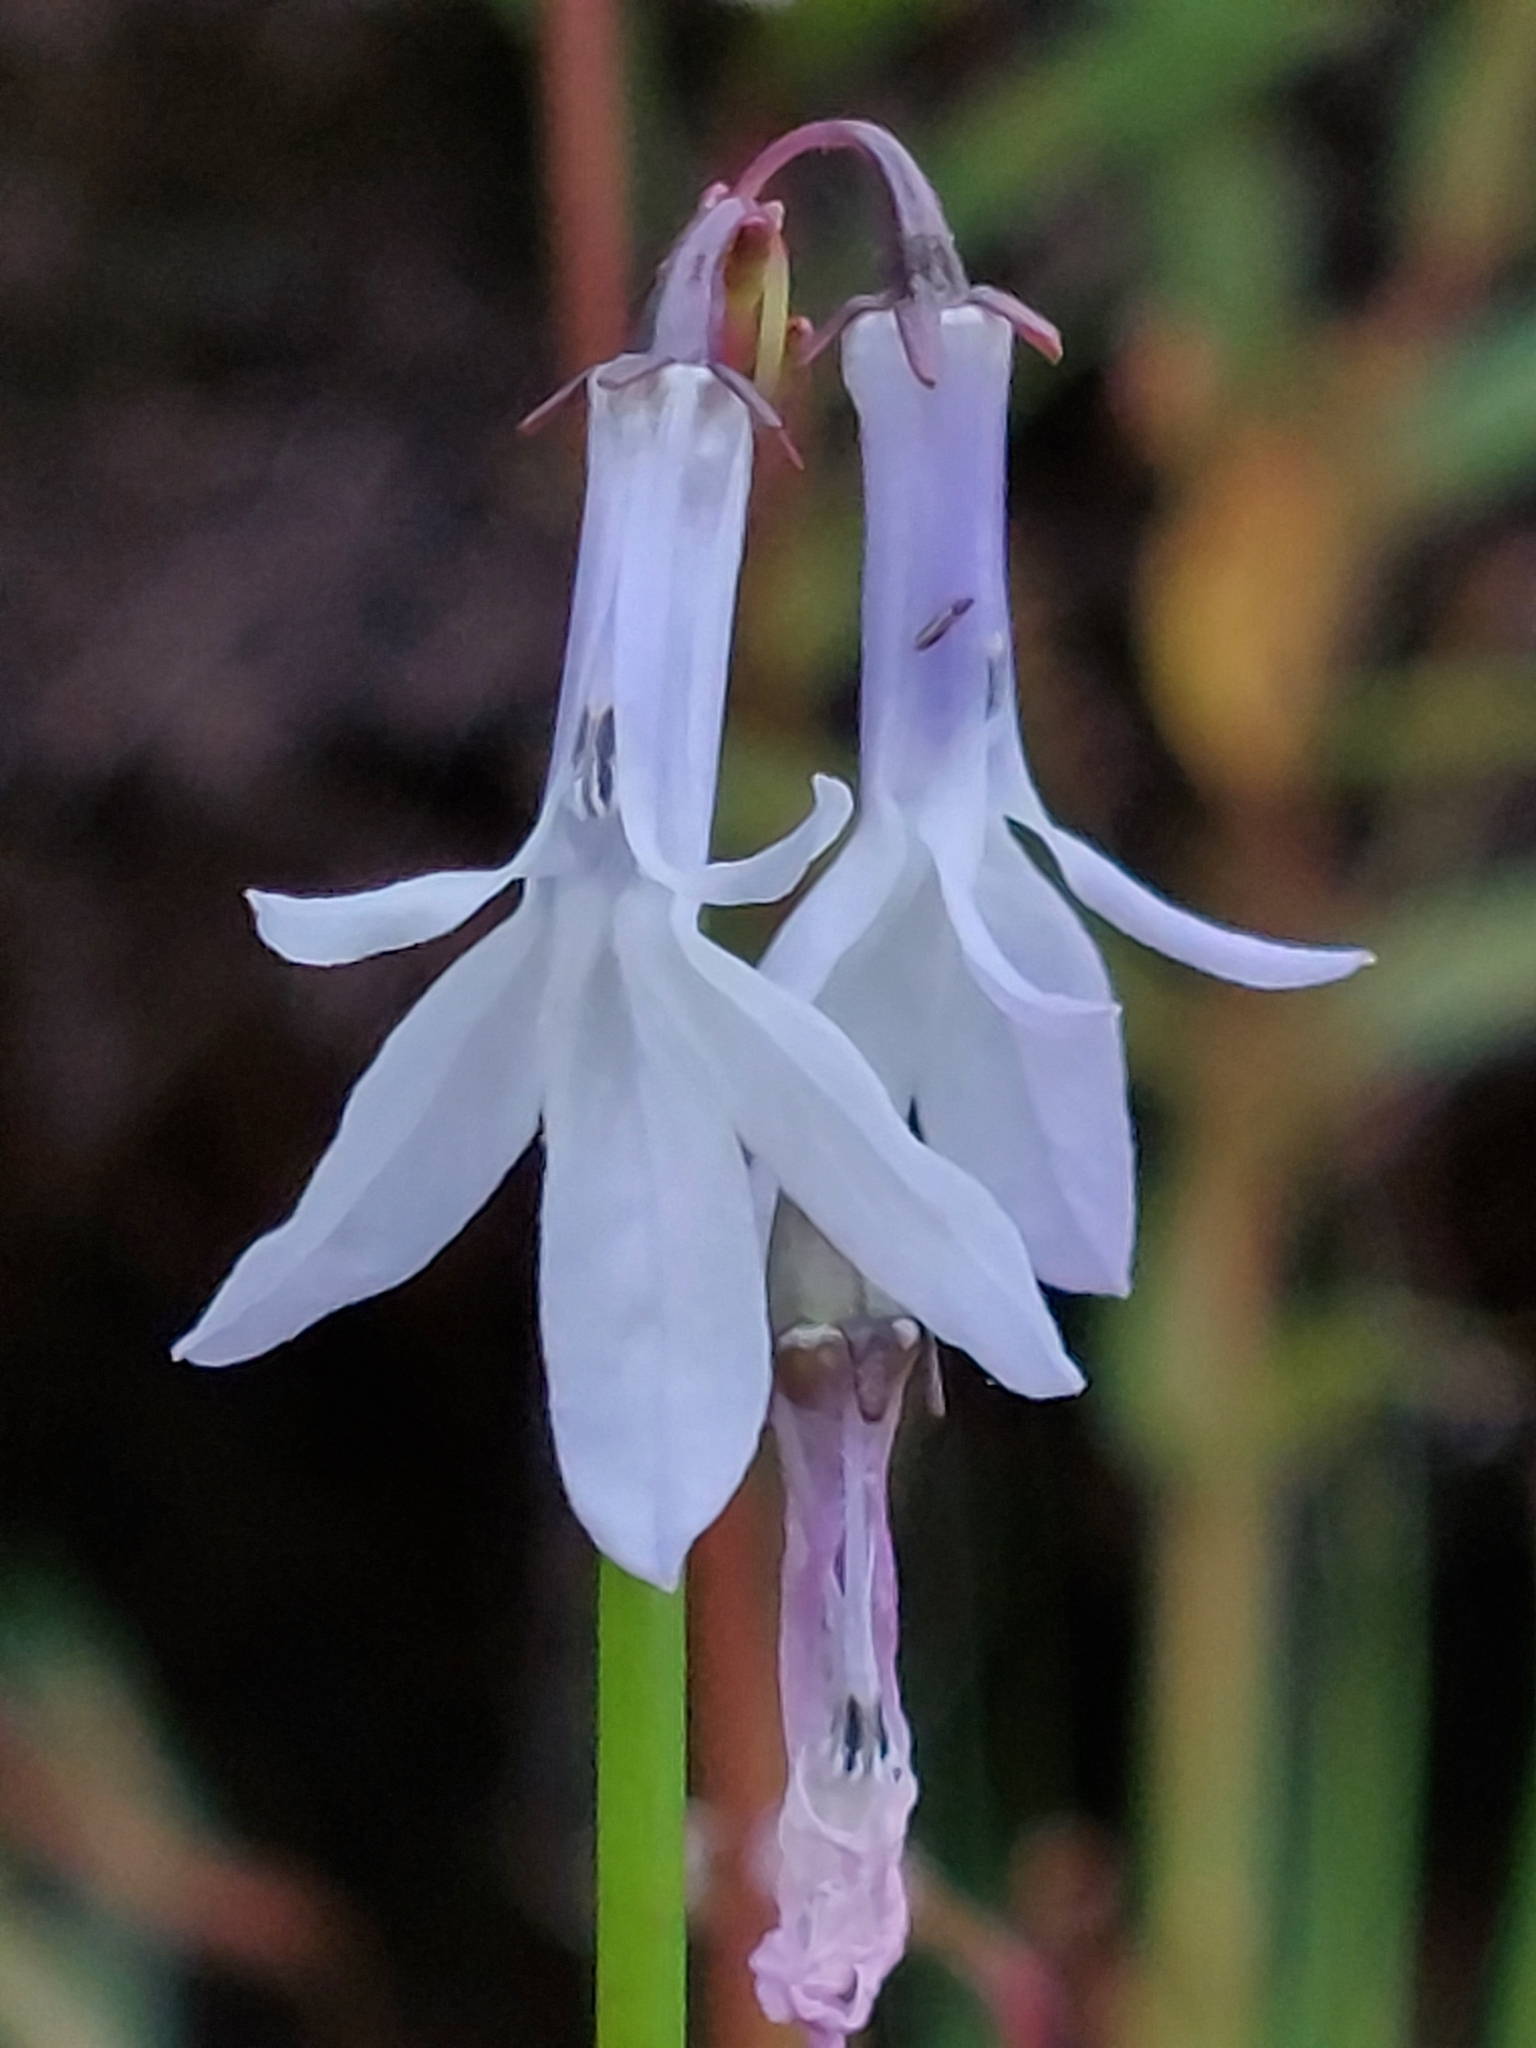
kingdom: Plantae
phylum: Tracheophyta
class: Magnoliopsida
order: Asterales
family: Campanulaceae
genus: Lobelia
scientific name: Lobelia dortmanna
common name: Water lobelia
